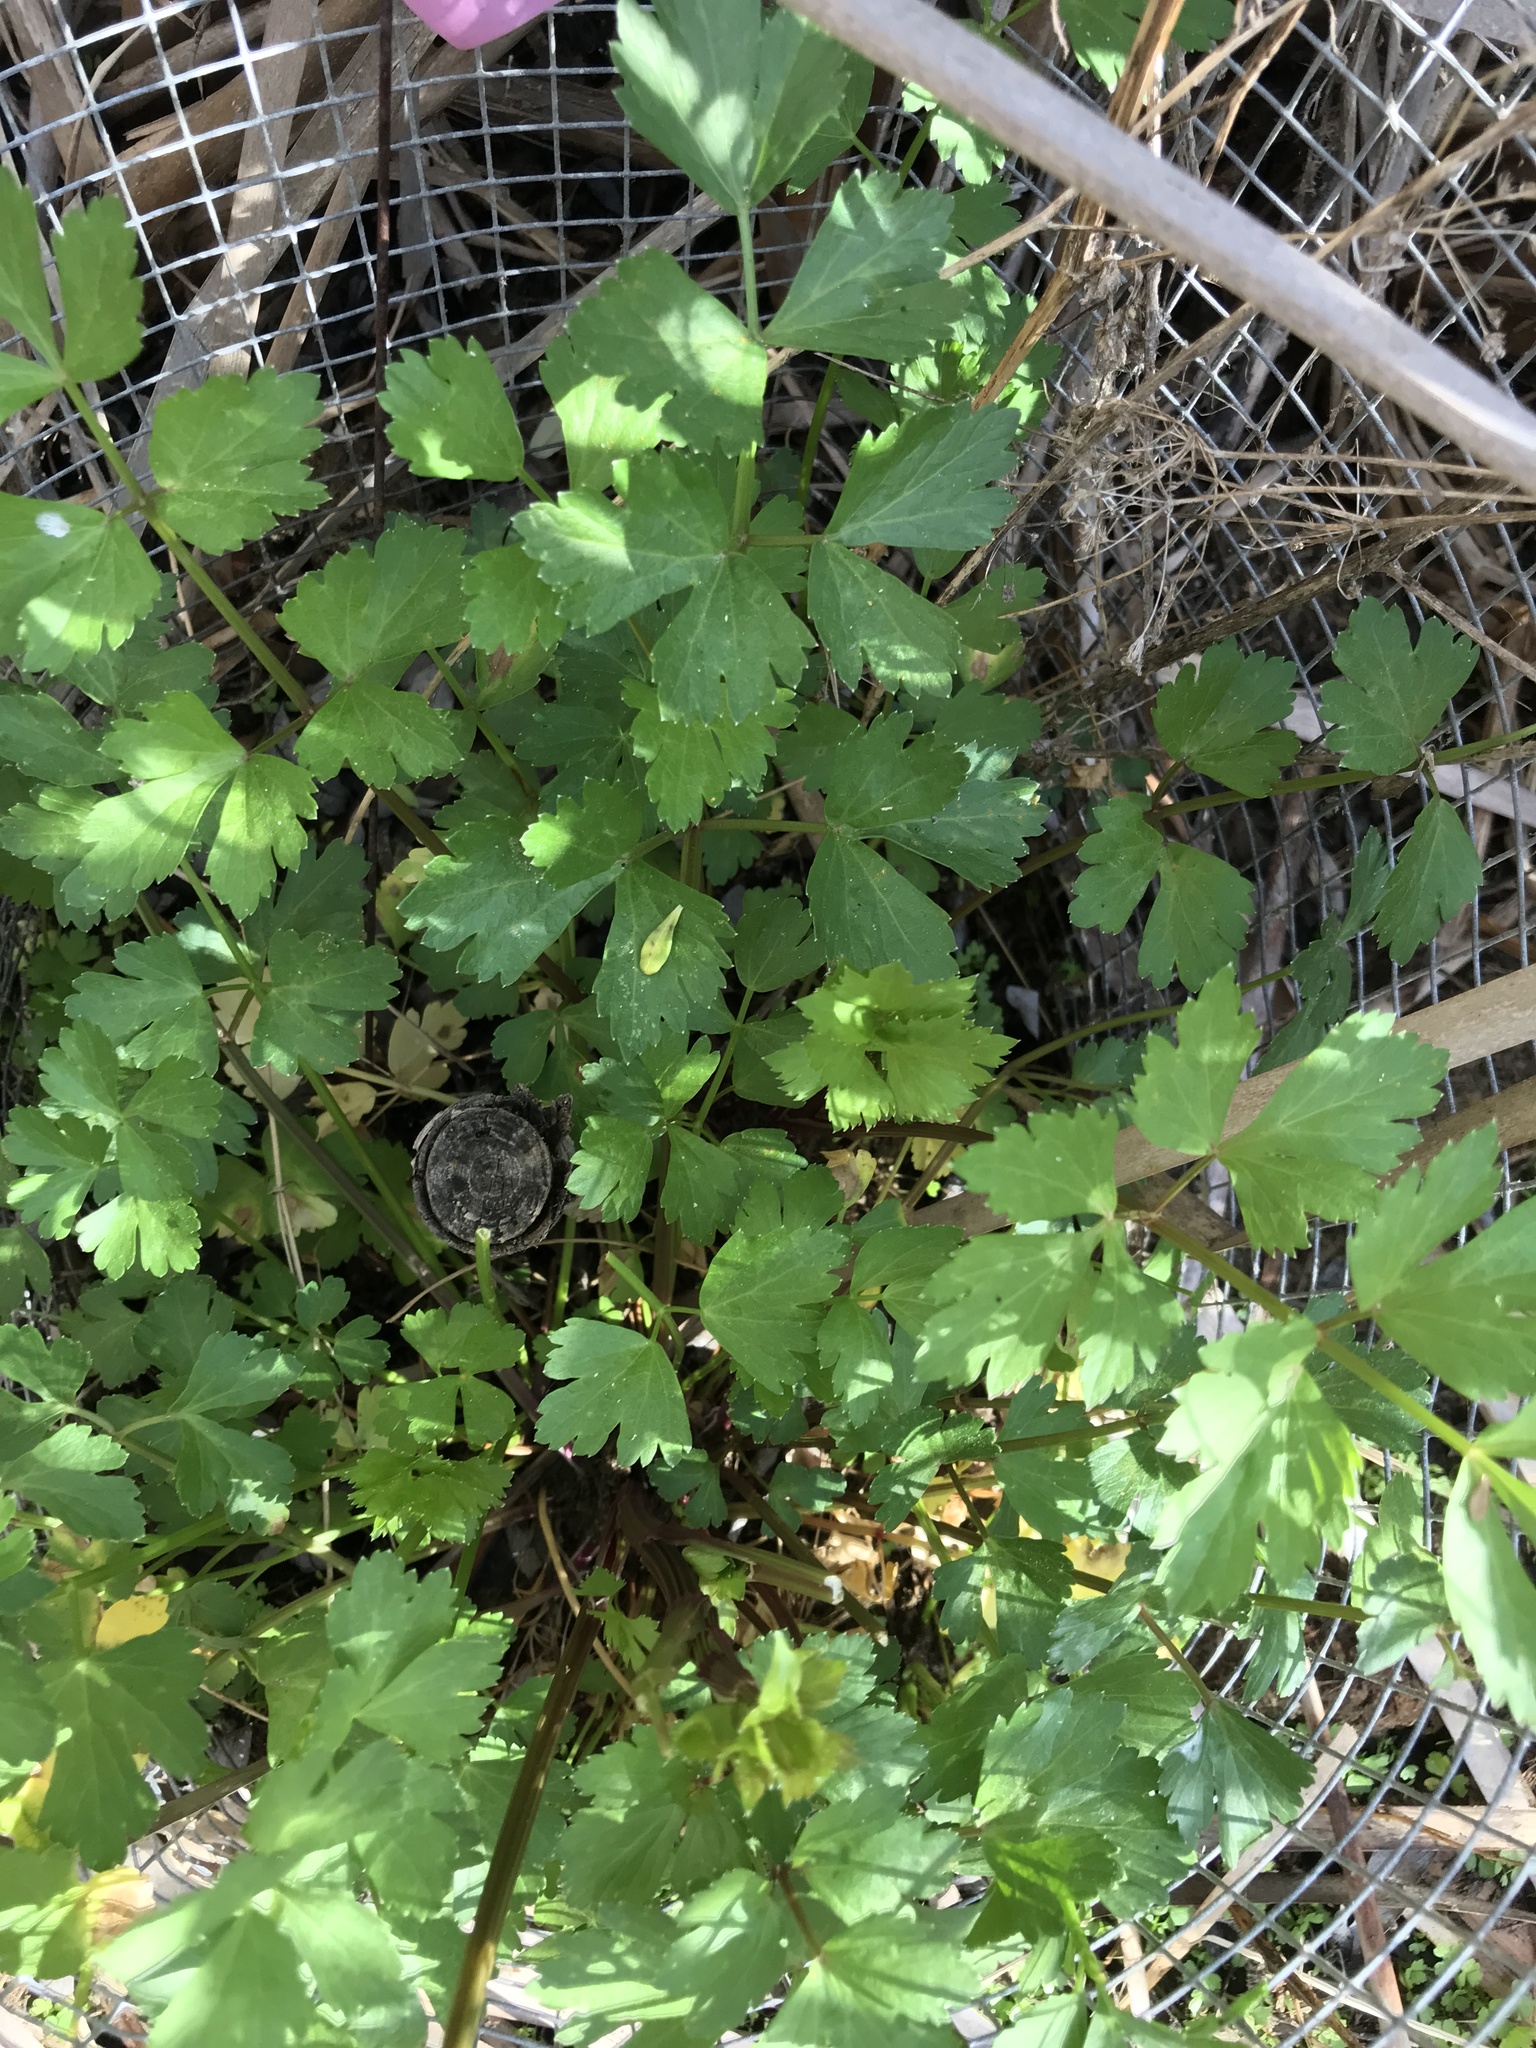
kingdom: Plantae
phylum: Tracheophyta
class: Magnoliopsida
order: Apiales
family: Apiaceae
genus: Apium
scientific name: Apium graveolens
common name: Wild celery
